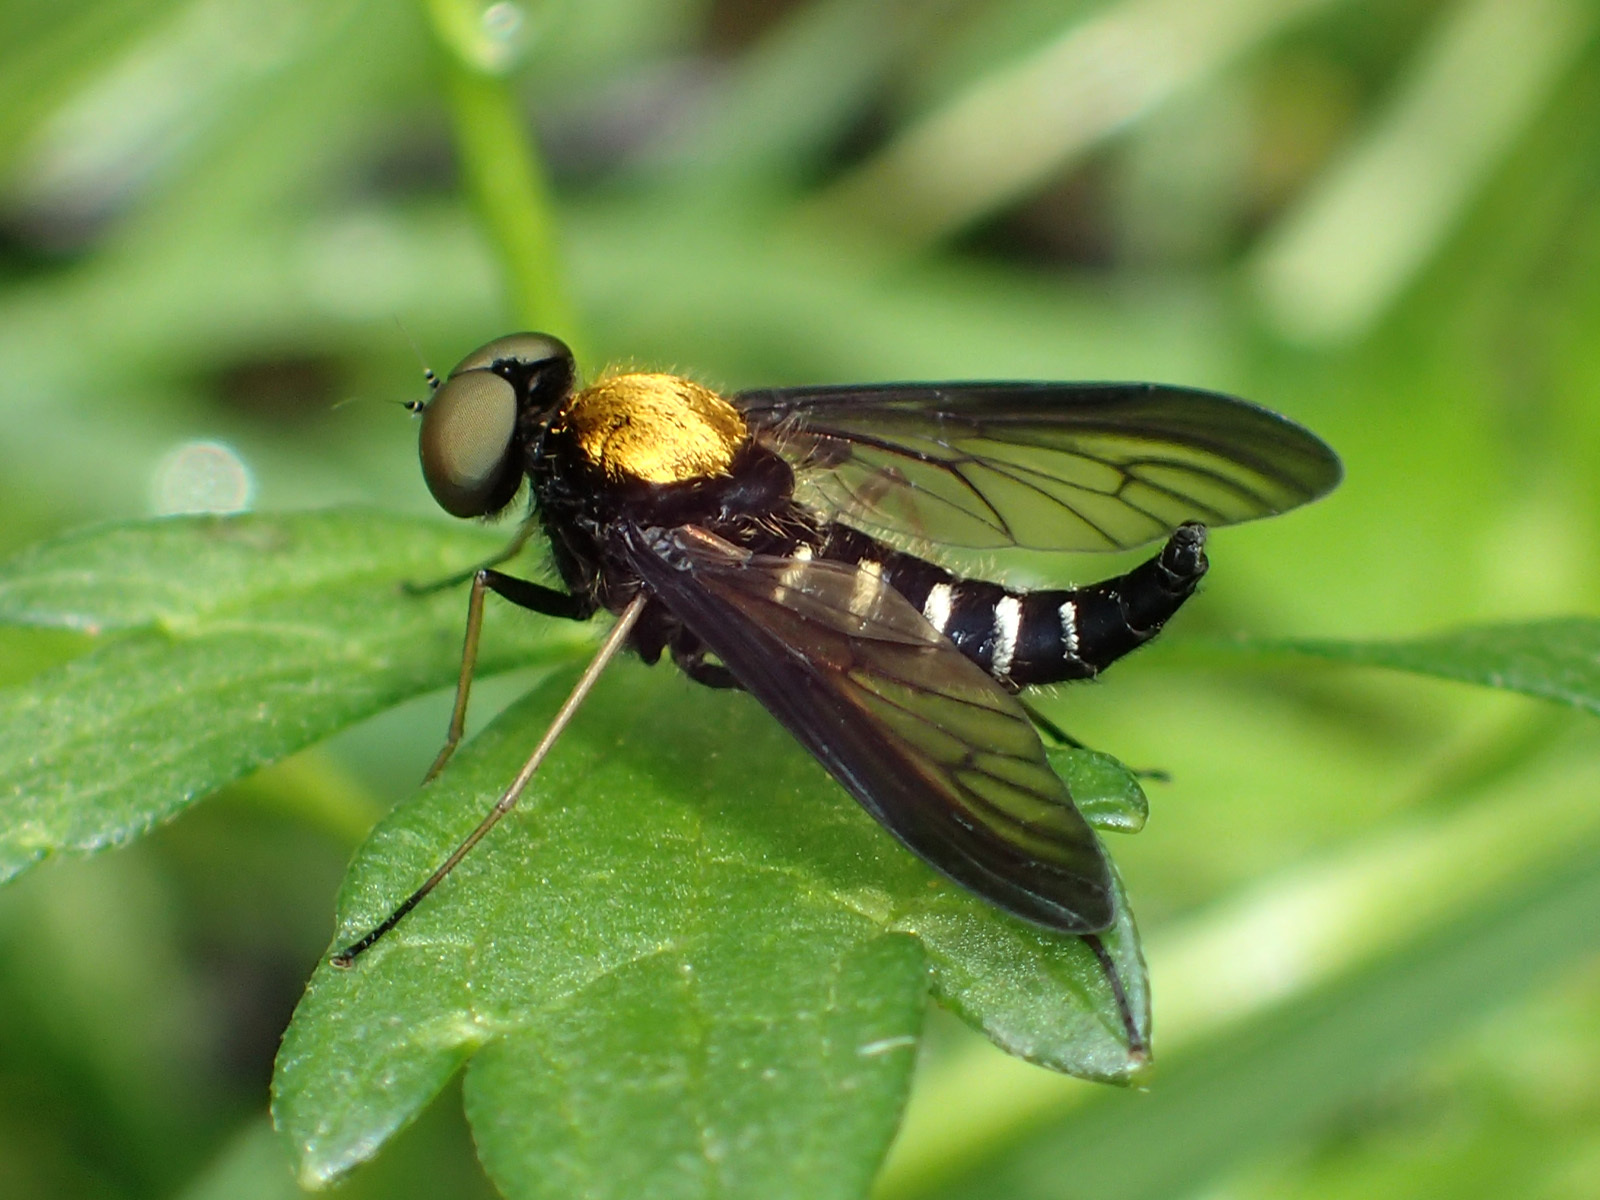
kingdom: Animalia
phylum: Arthropoda
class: Insecta
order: Diptera
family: Rhagionidae
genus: Chrysopilus
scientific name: Chrysopilus thoracicus
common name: Golden-backed snipe fly
